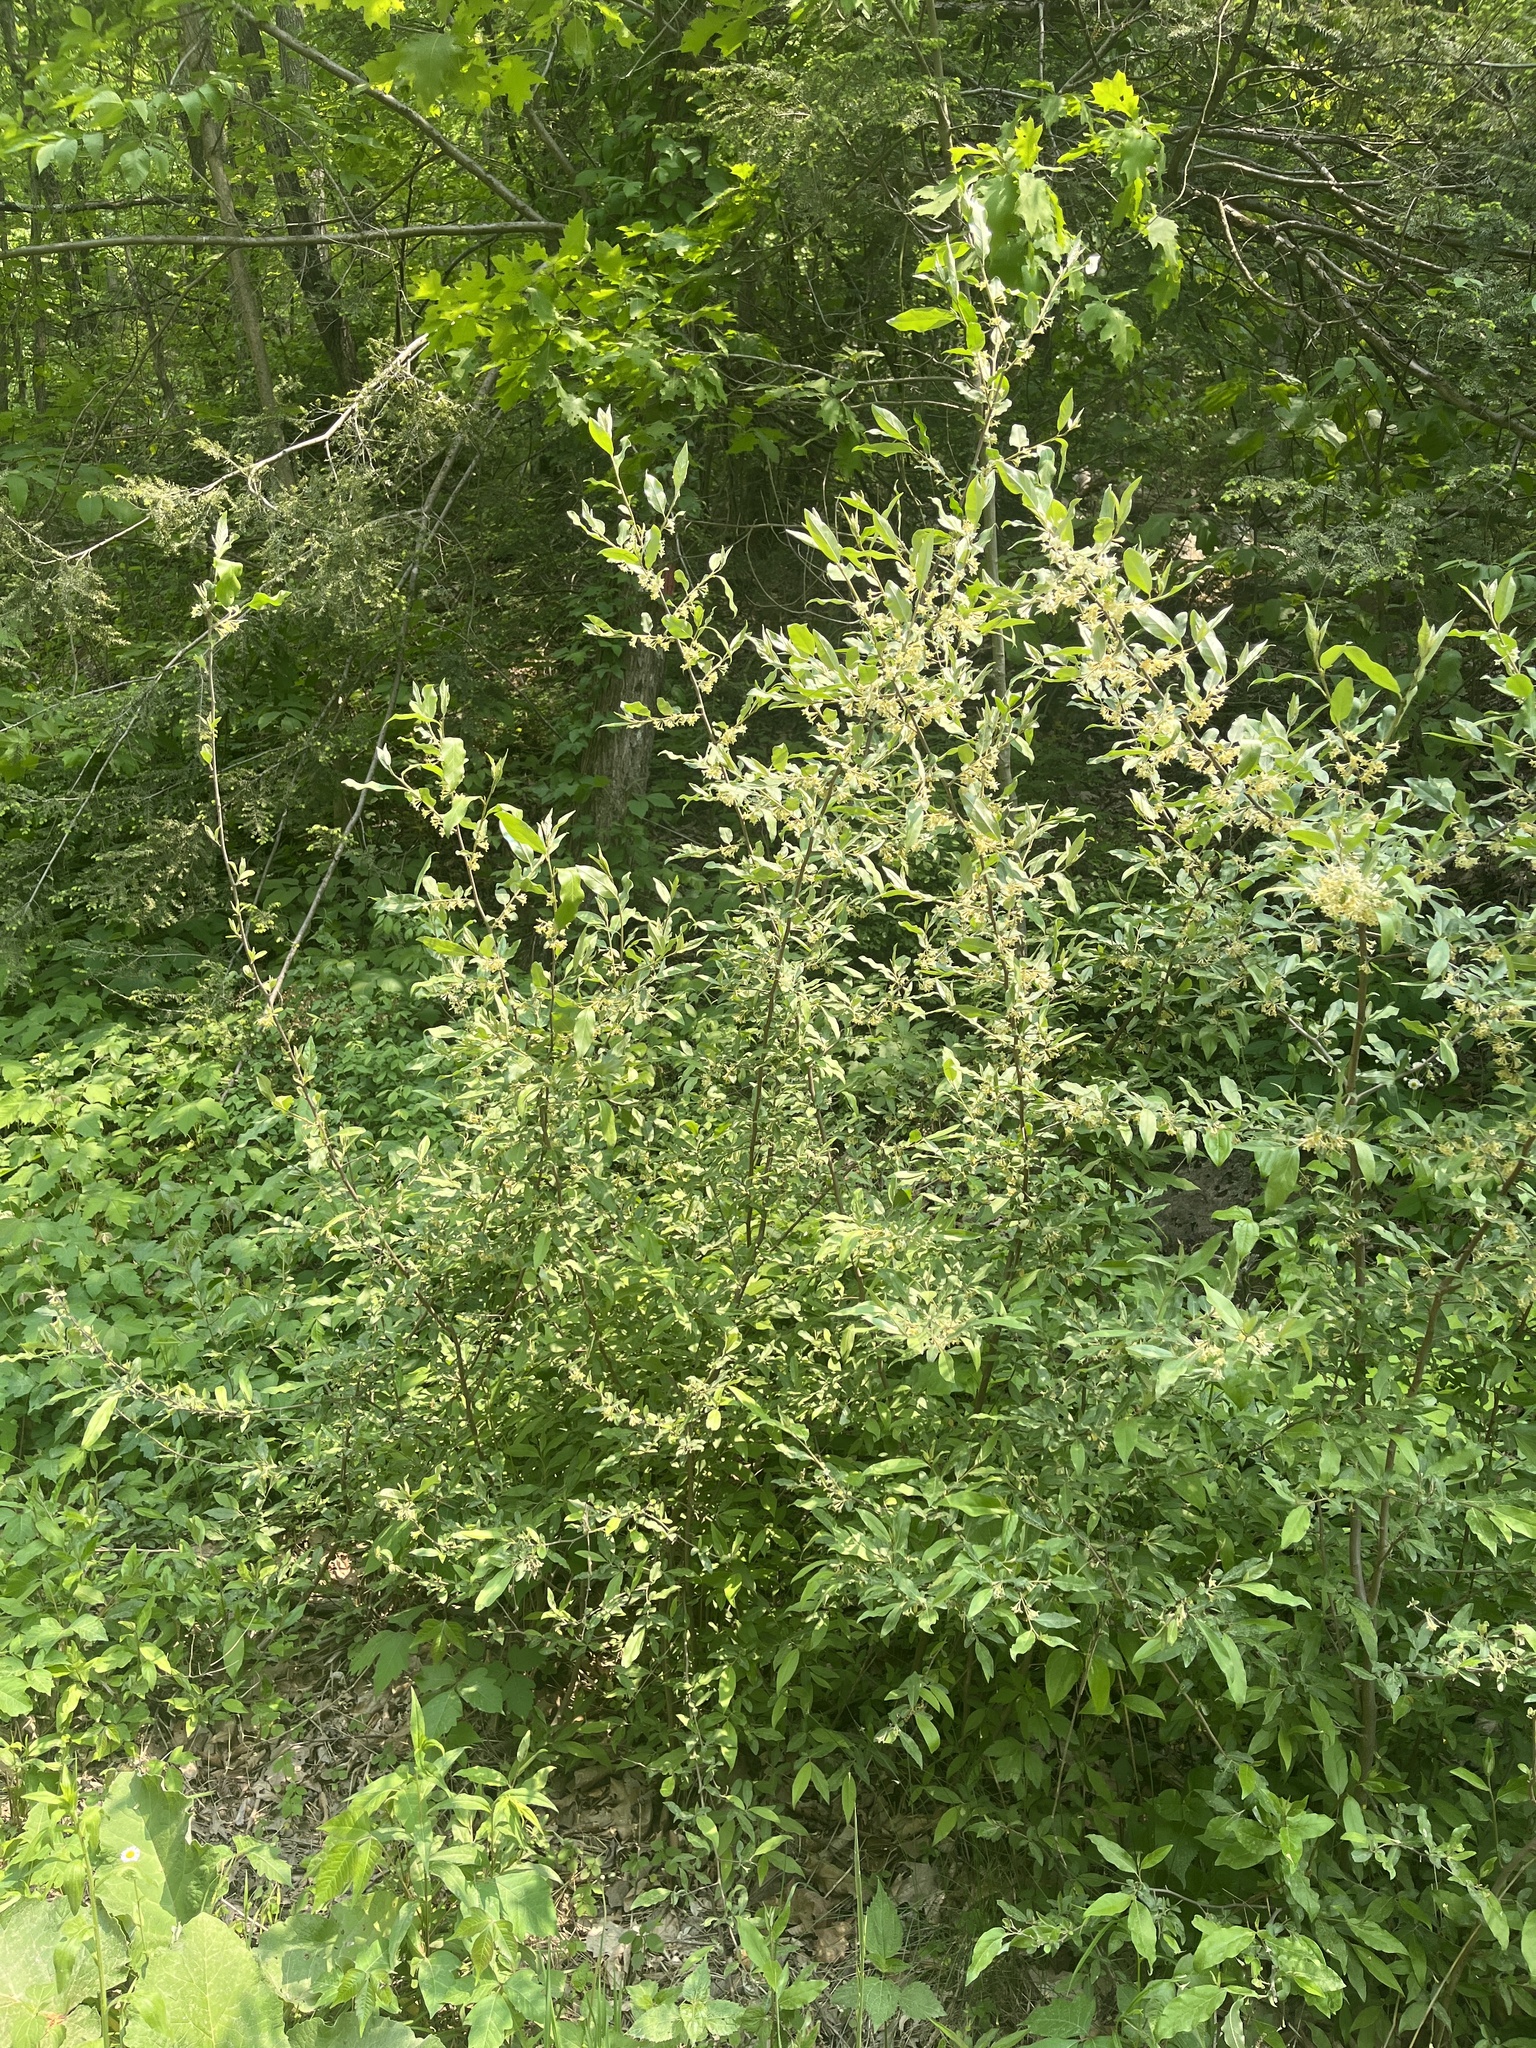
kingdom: Plantae
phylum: Tracheophyta
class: Magnoliopsida
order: Rosales
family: Elaeagnaceae
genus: Elaeagnus
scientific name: Elaeagnus umbellata
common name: Autumn olive
